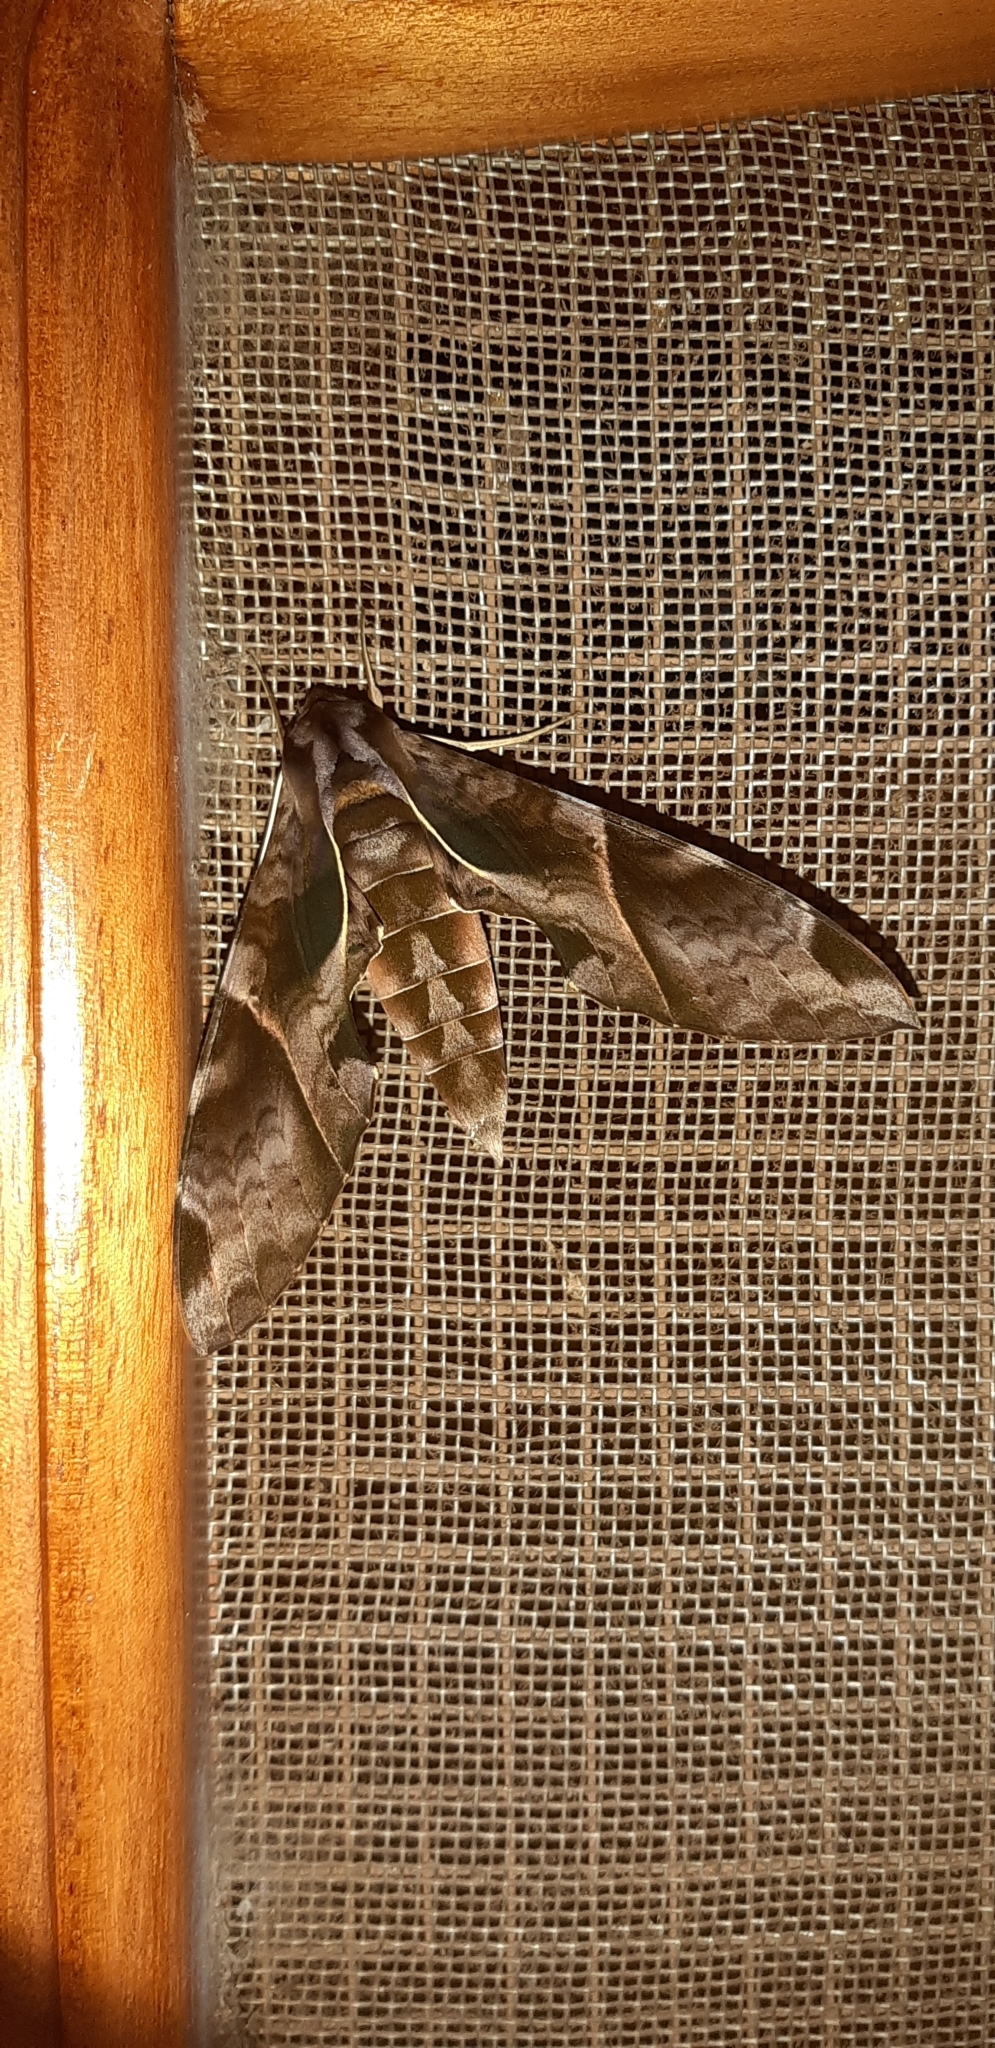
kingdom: Animalia
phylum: Arthropoda
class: Insecta
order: Lepidoptera
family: Sphingidae
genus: Eumorpha
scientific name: Eumorpha anchemolus
